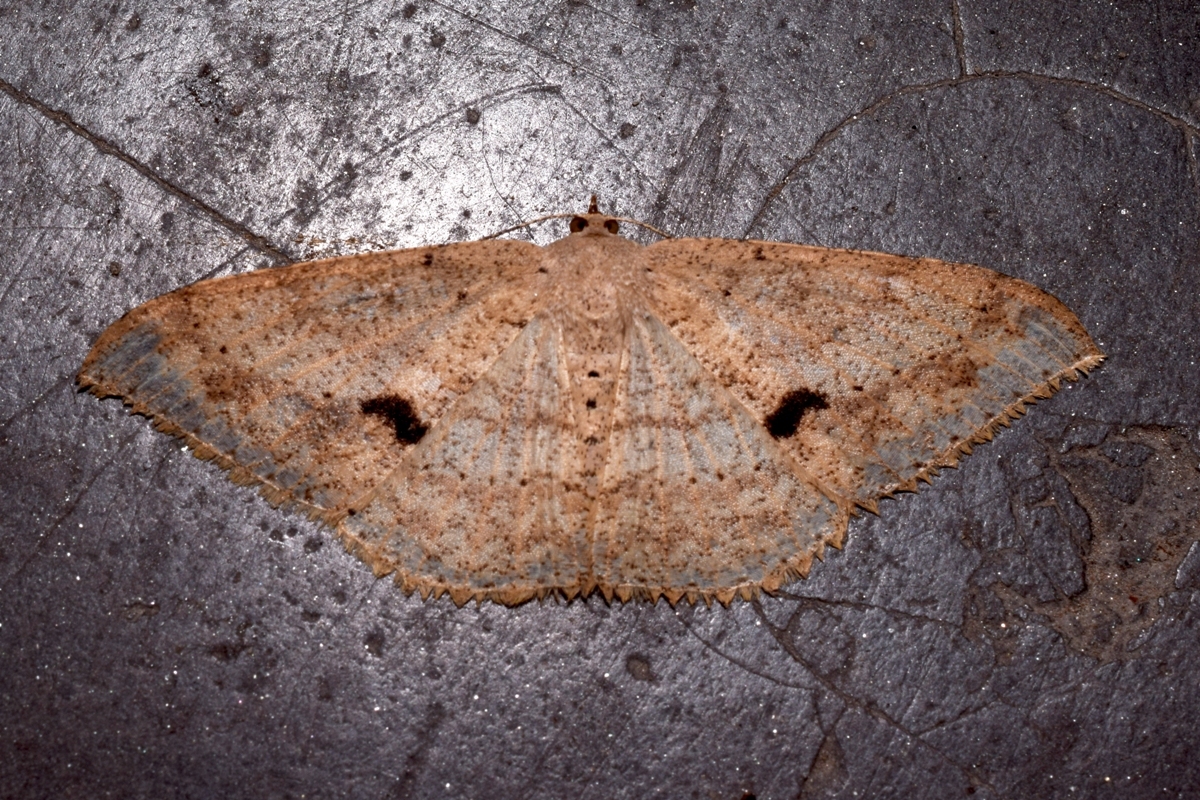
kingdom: Animalia
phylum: Arthropoda
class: Insecta
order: Lepidoptera
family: Geometridae
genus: Luxiaria
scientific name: Luxiaria mitorrhaphes
